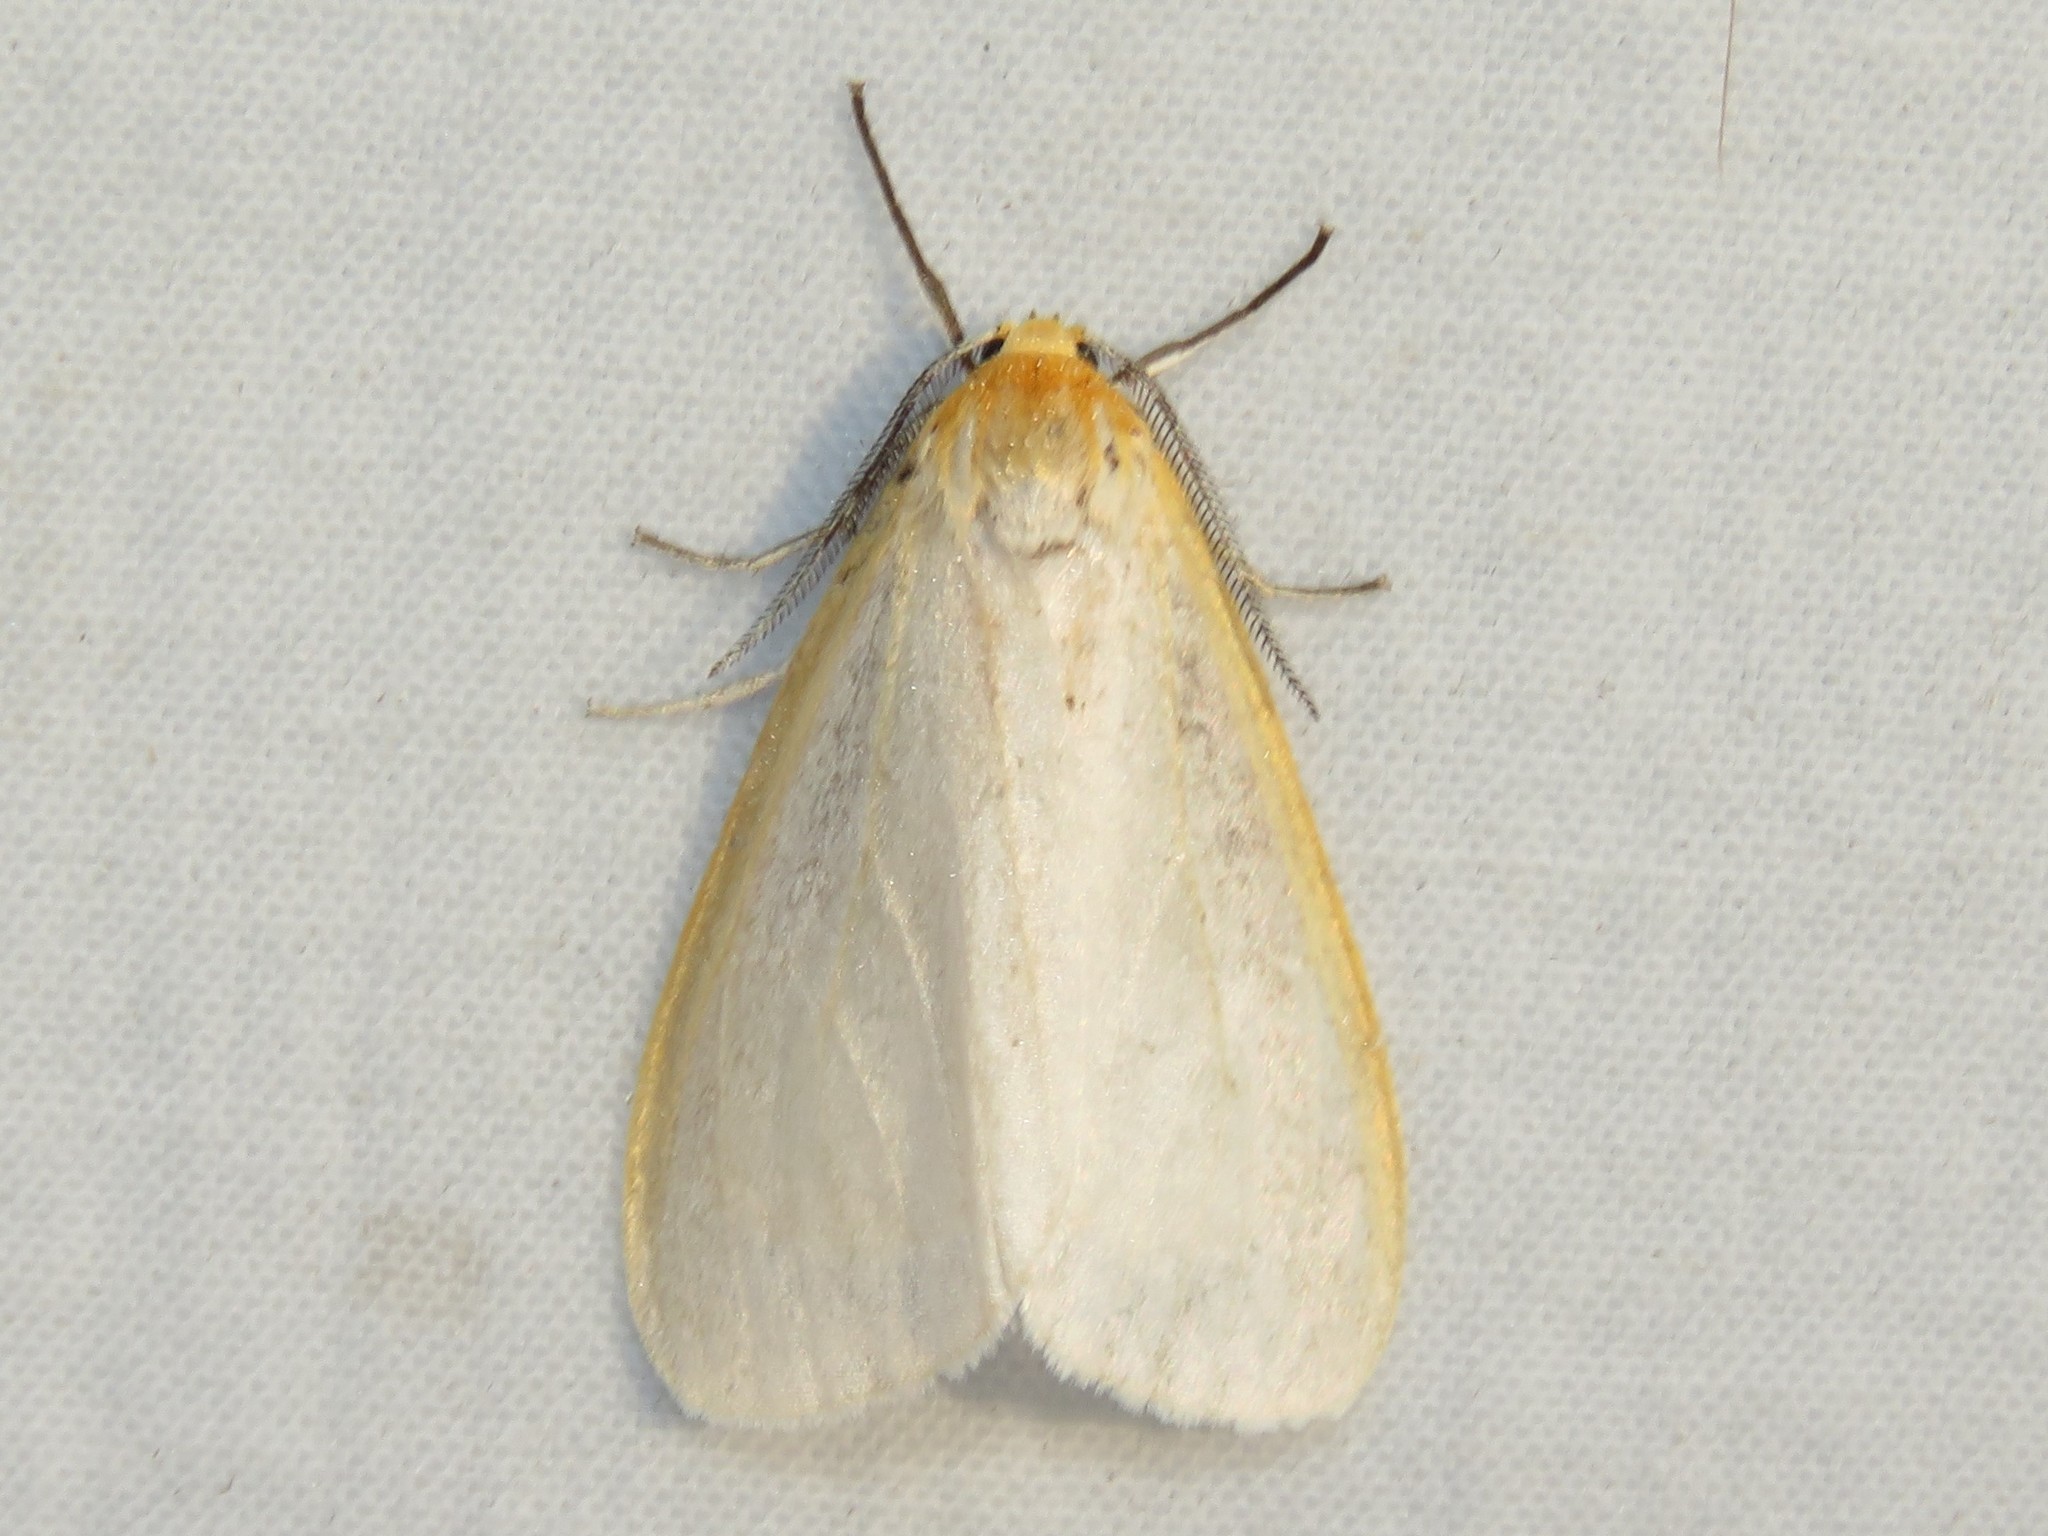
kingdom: Animalia
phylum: Arthropoda
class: Insecta
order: Lepidoptera
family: Erebidae
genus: Cycnia
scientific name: Cycnia tenera
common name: Delicate cycnia moth
